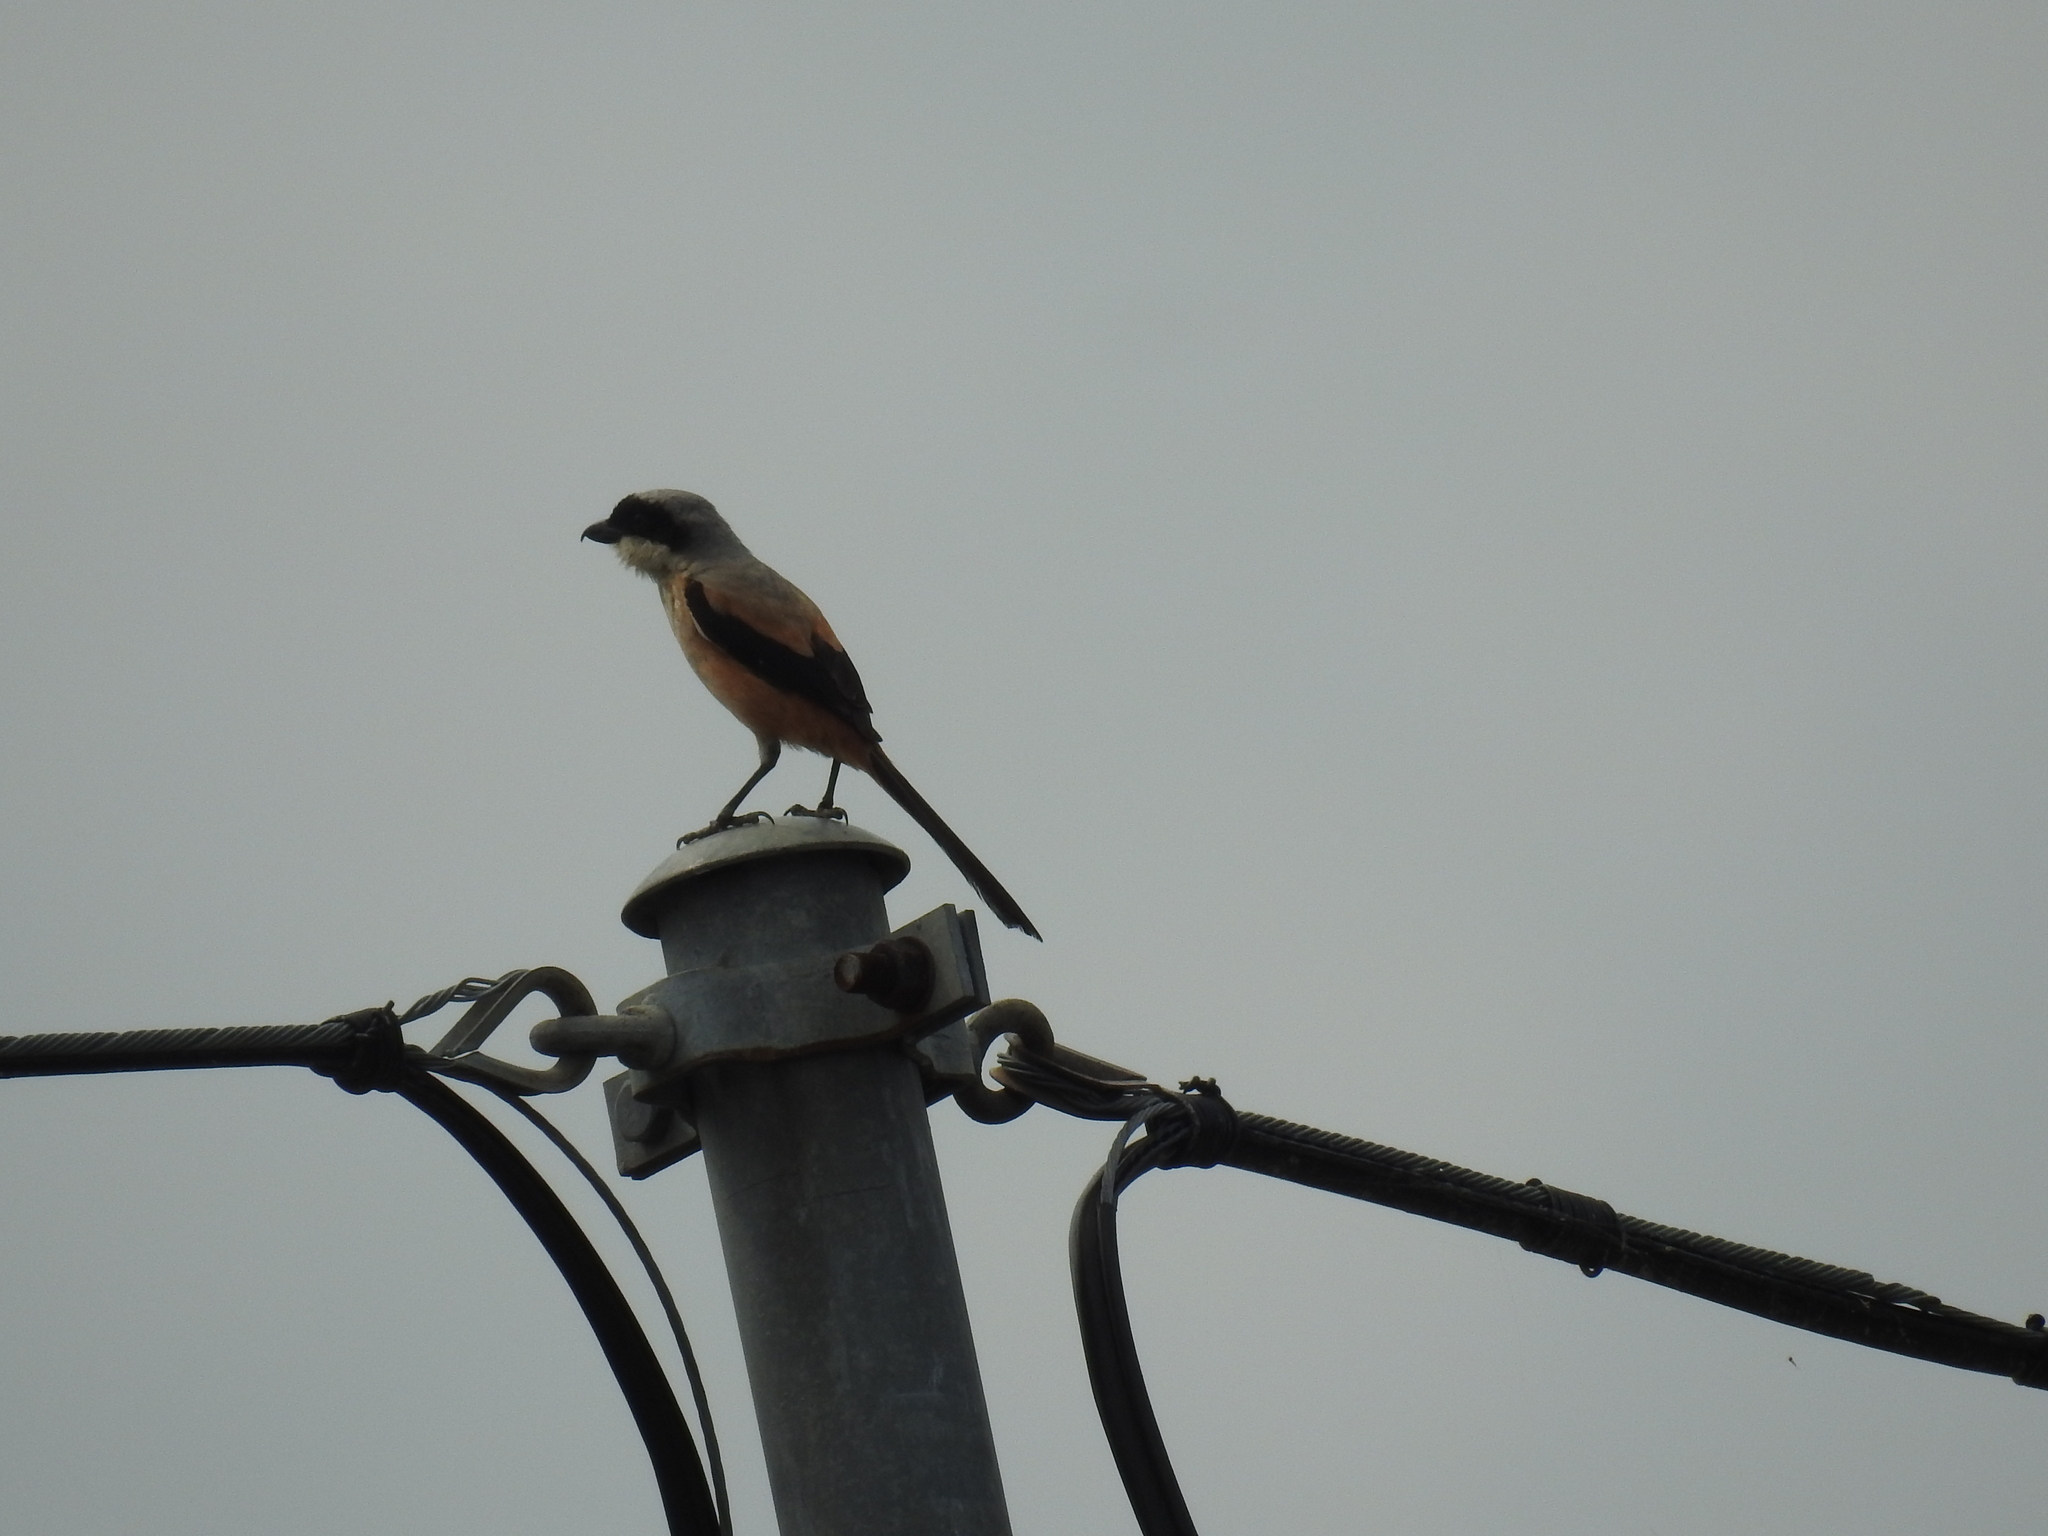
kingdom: Animalia
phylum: Chordata
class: Aves
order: Passeriformes
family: Laniidae
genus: Lanius
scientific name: Lanius schach
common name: Long-tailed shrike
